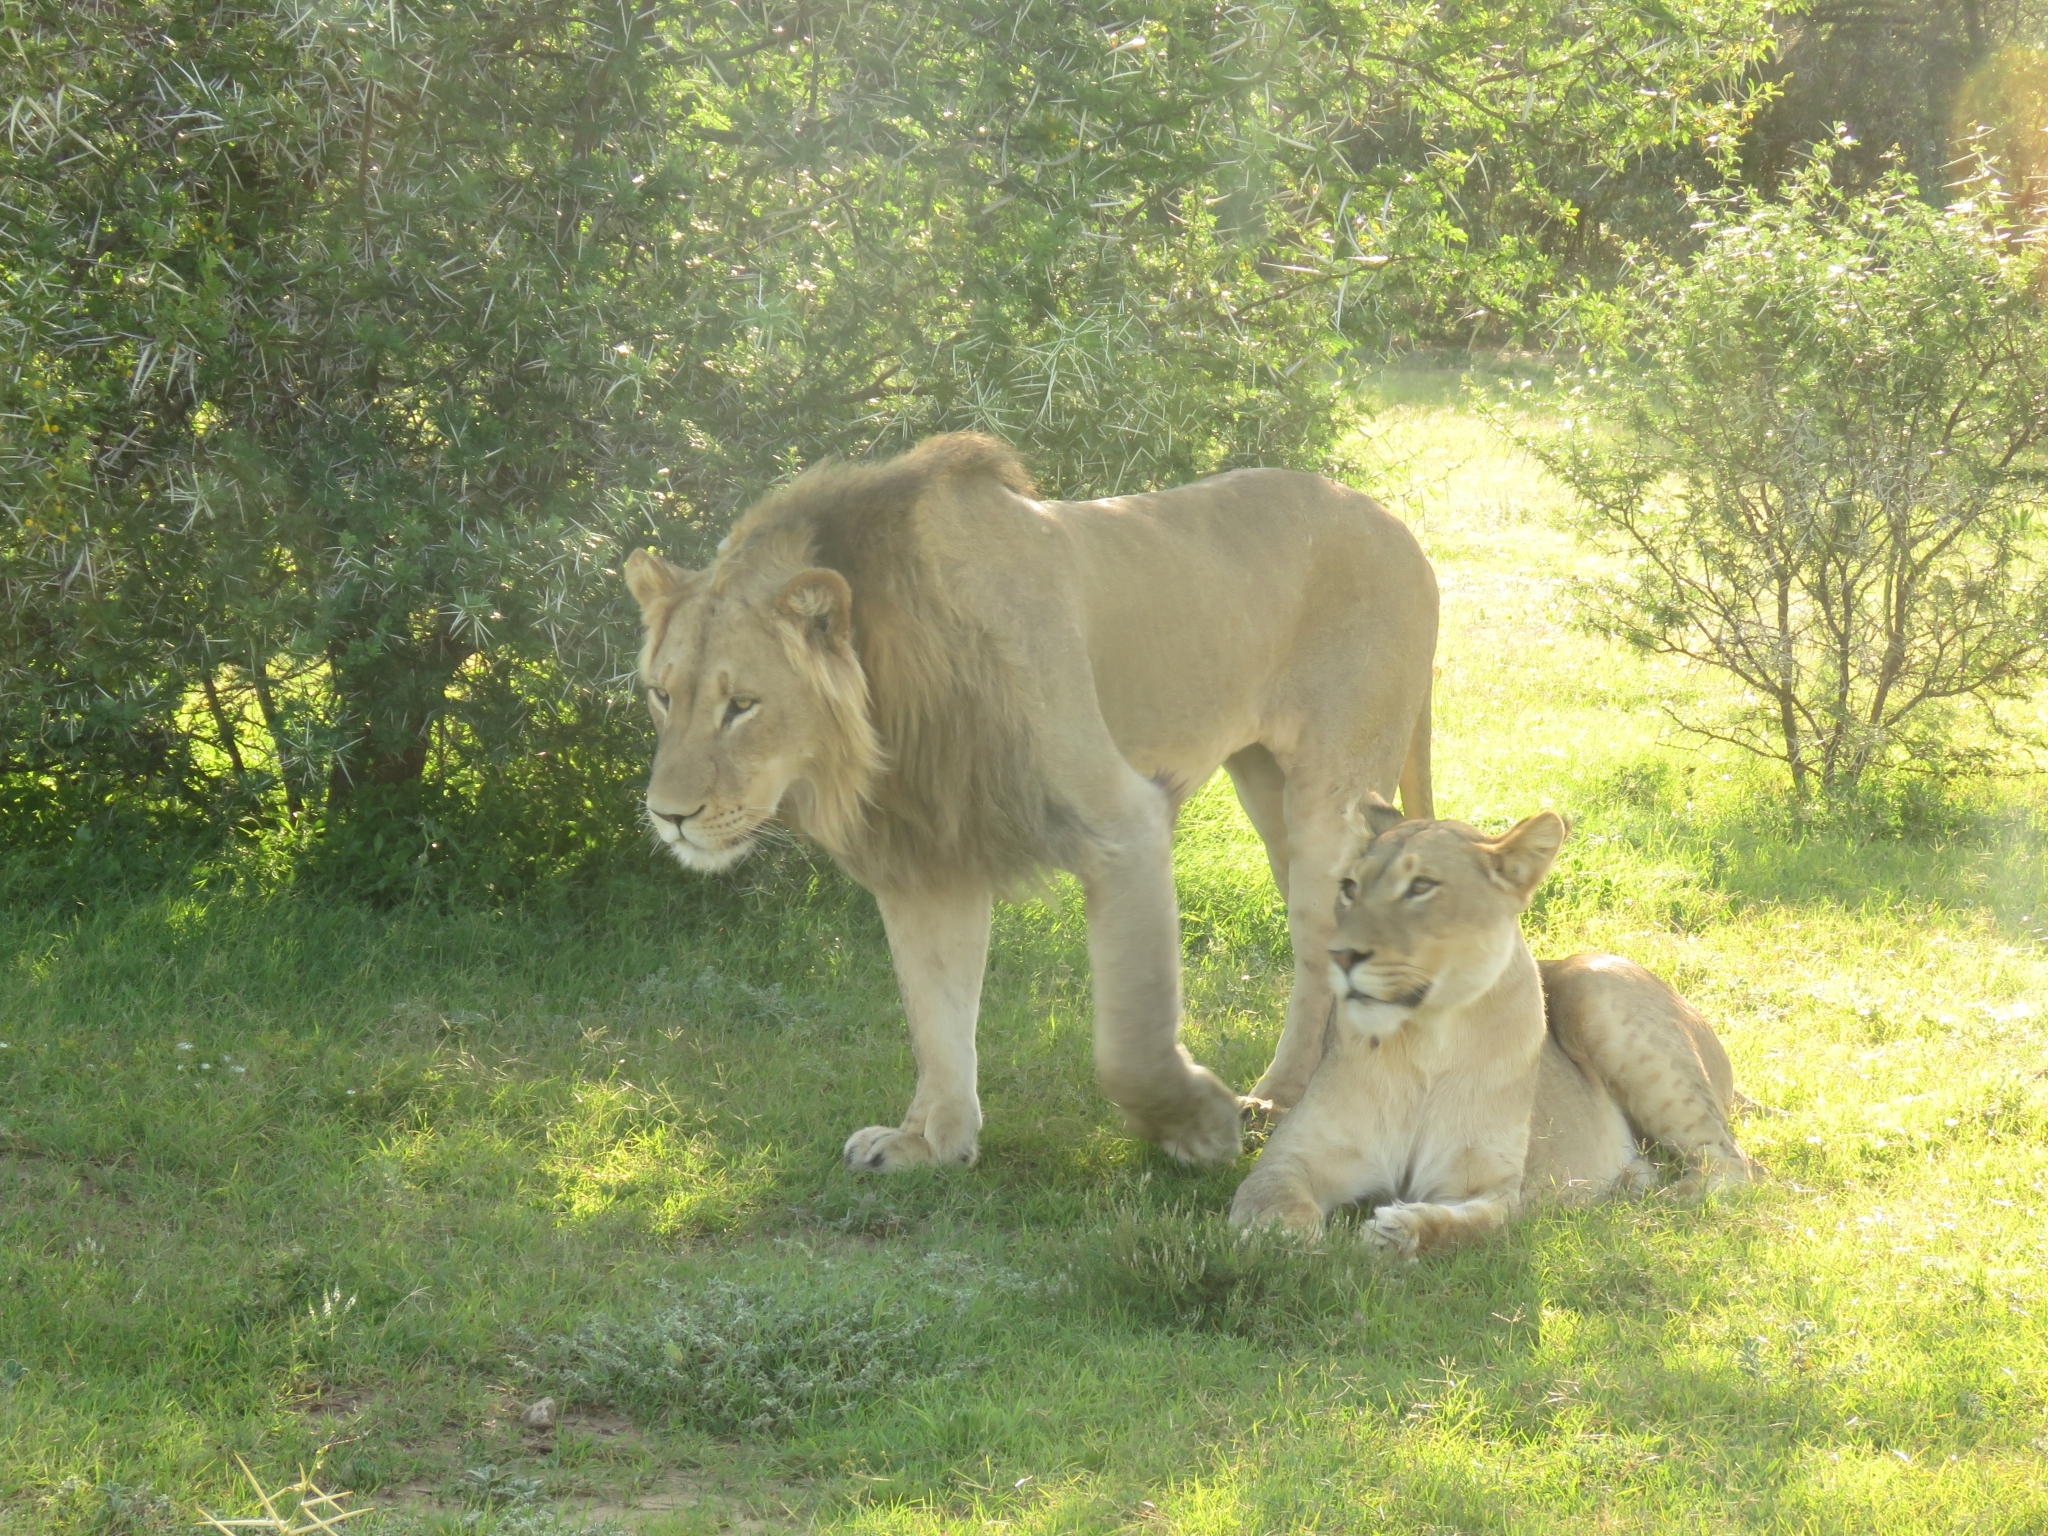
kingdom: Animalia
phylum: Chordata
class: Mammalia
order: Carnivora
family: Felidae
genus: Panthera
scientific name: Panthera leo
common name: Lion
